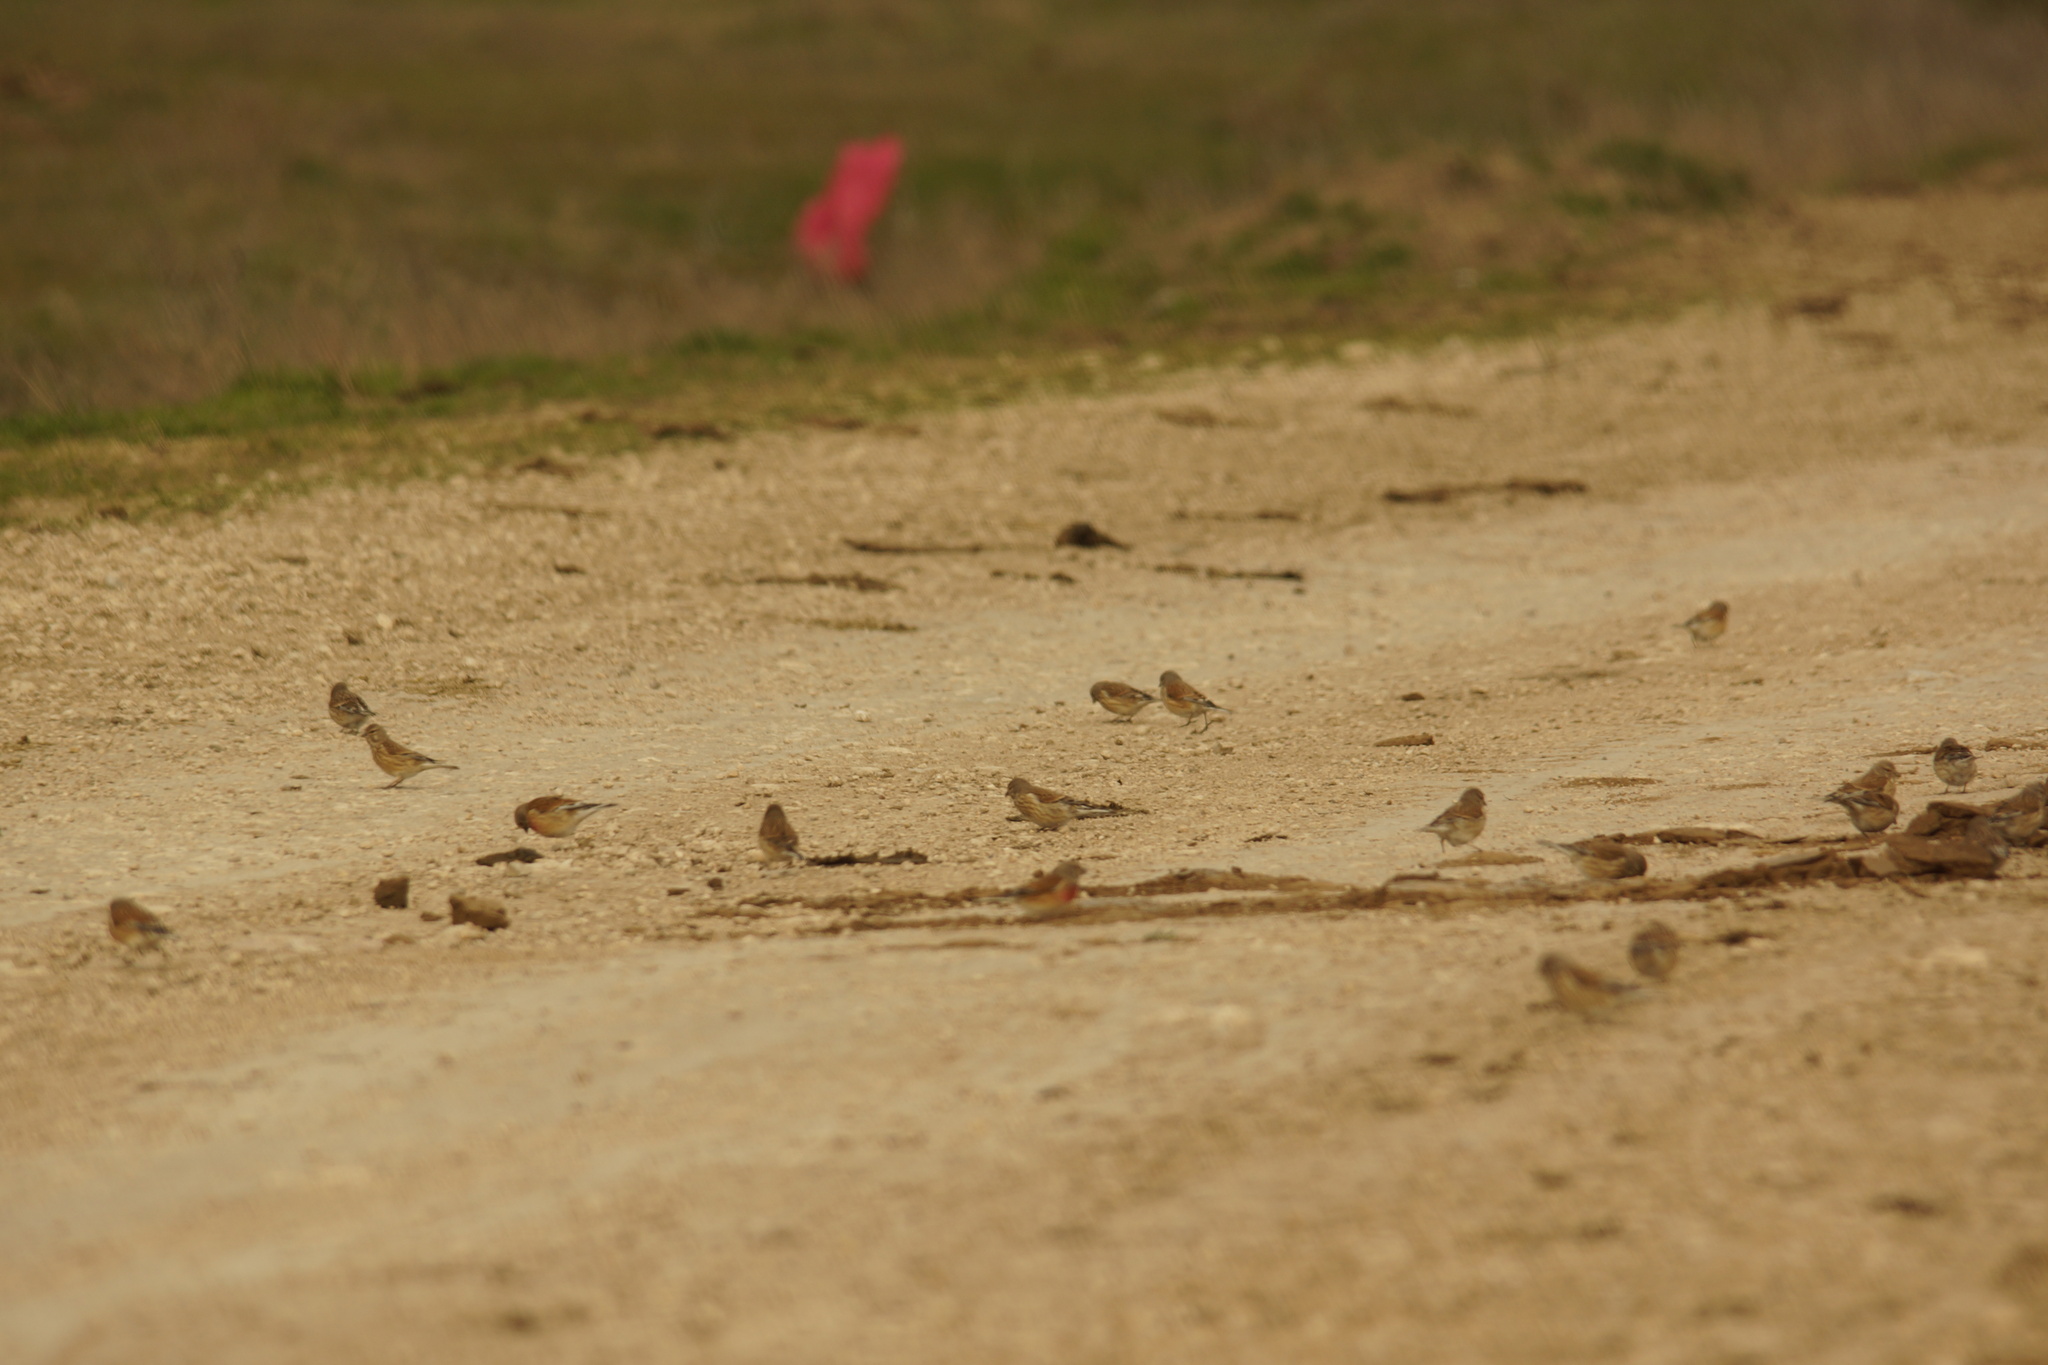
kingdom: Animalia
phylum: Chordata
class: Aves
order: Passeriformes
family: Fringillidae
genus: Linaria
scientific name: Linaria cannabina
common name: Common linnet
